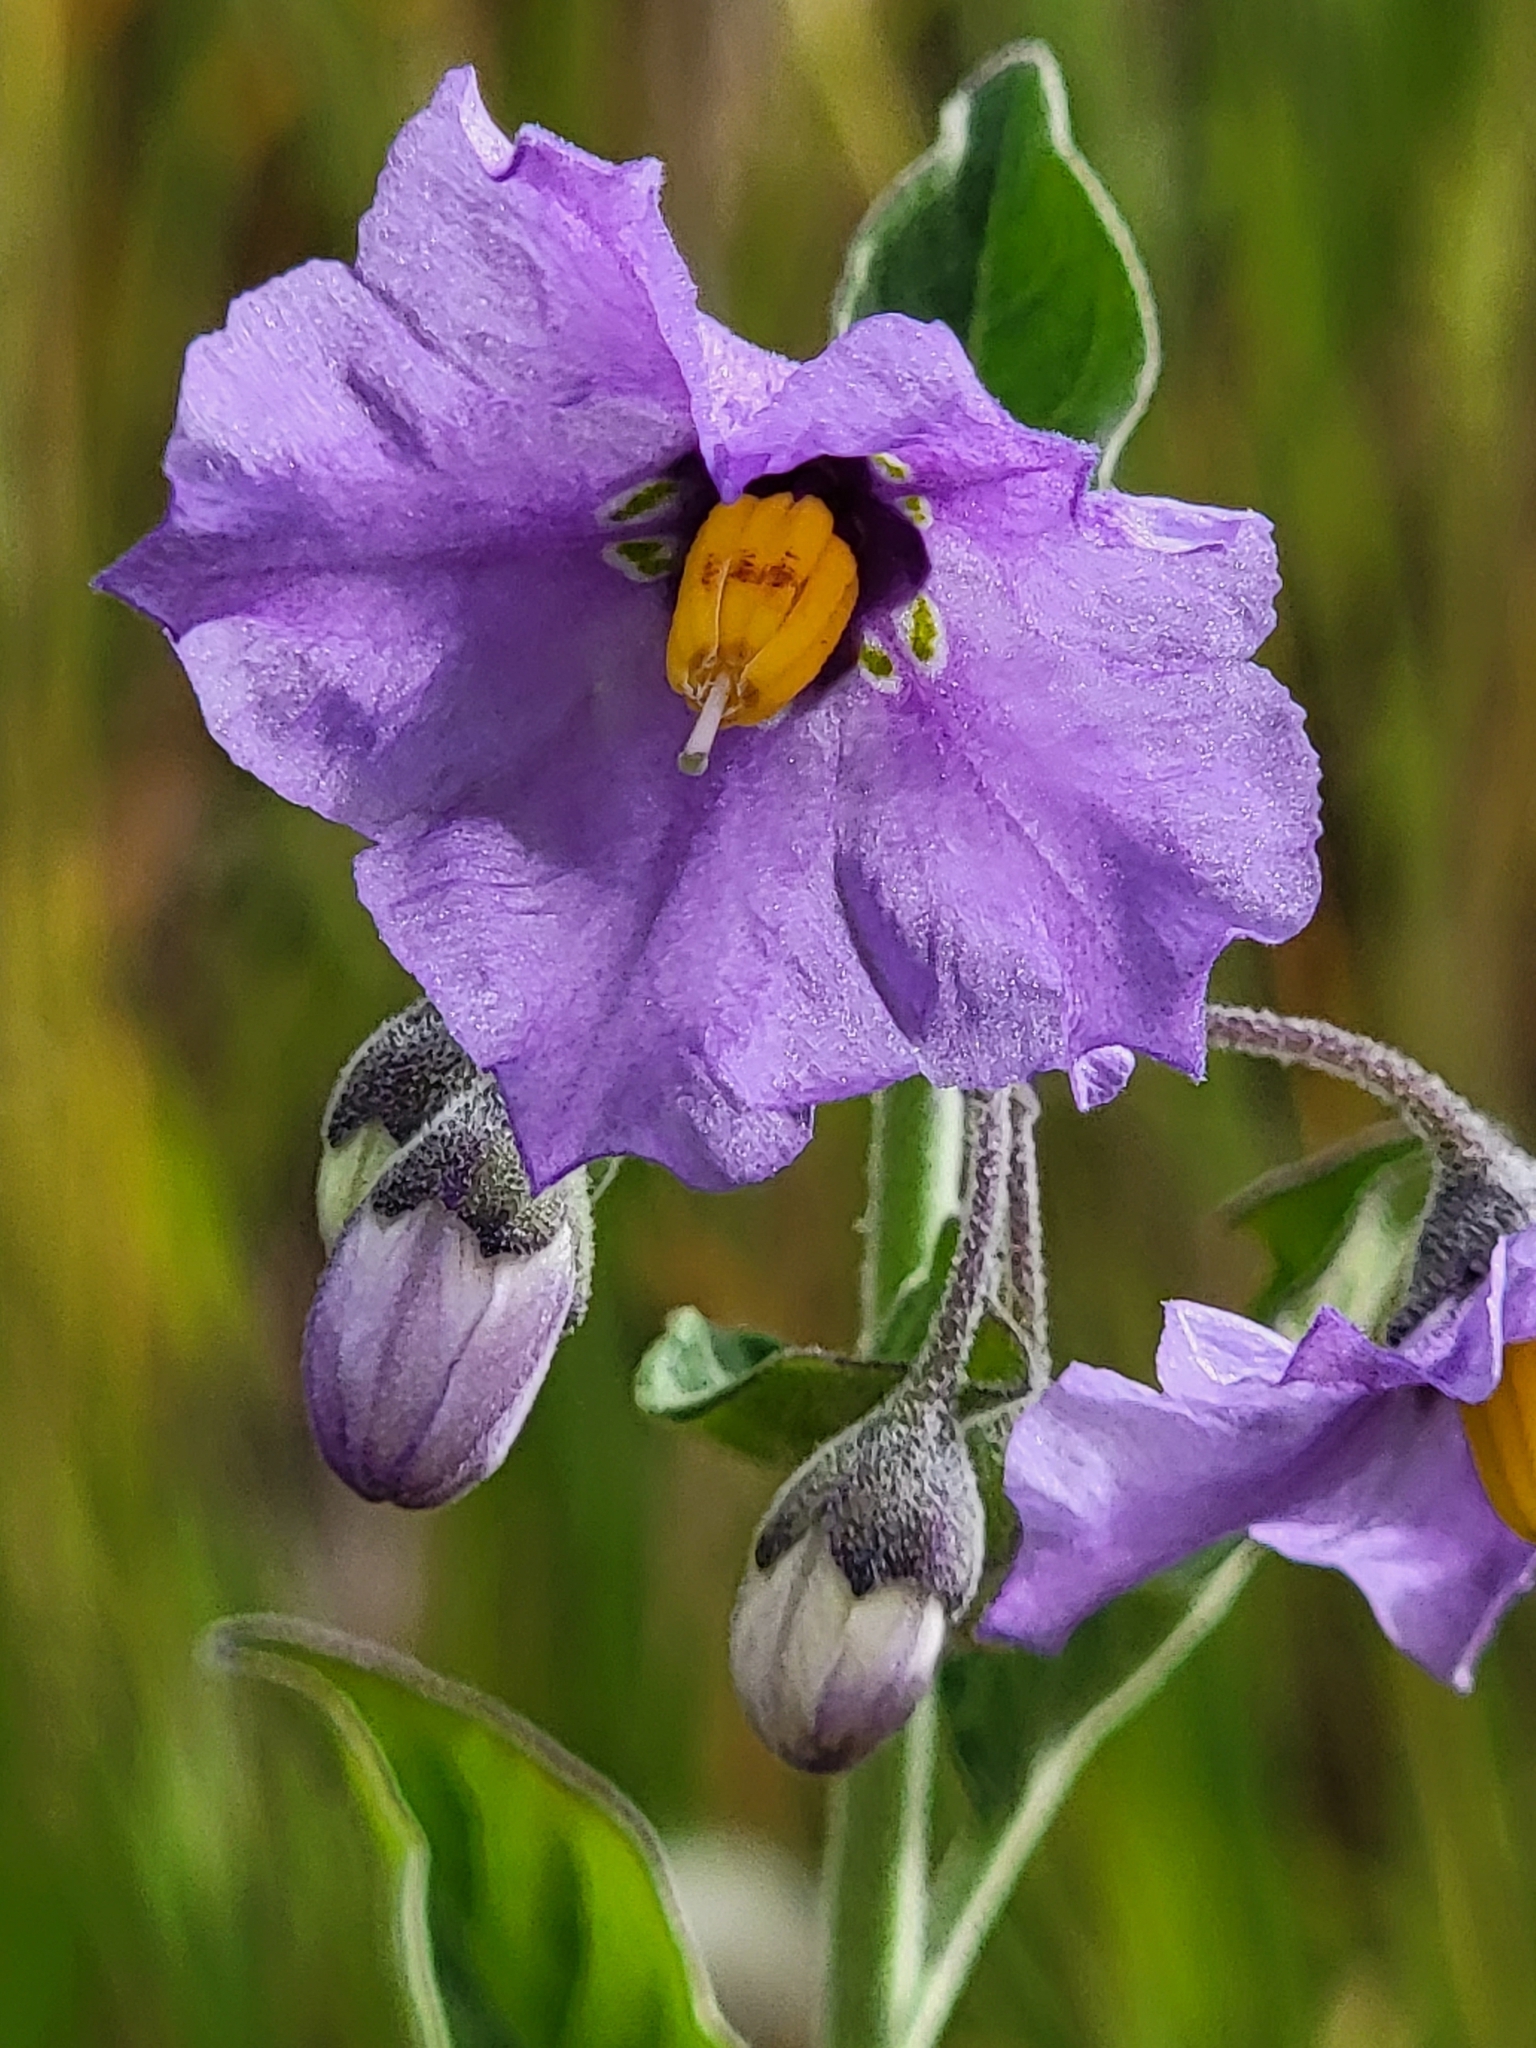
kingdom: Plantae
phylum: Tracheophyta
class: Magnoliopsida
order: Solanales
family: Solanaceae
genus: Solanum
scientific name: Solanum umbelliferum
